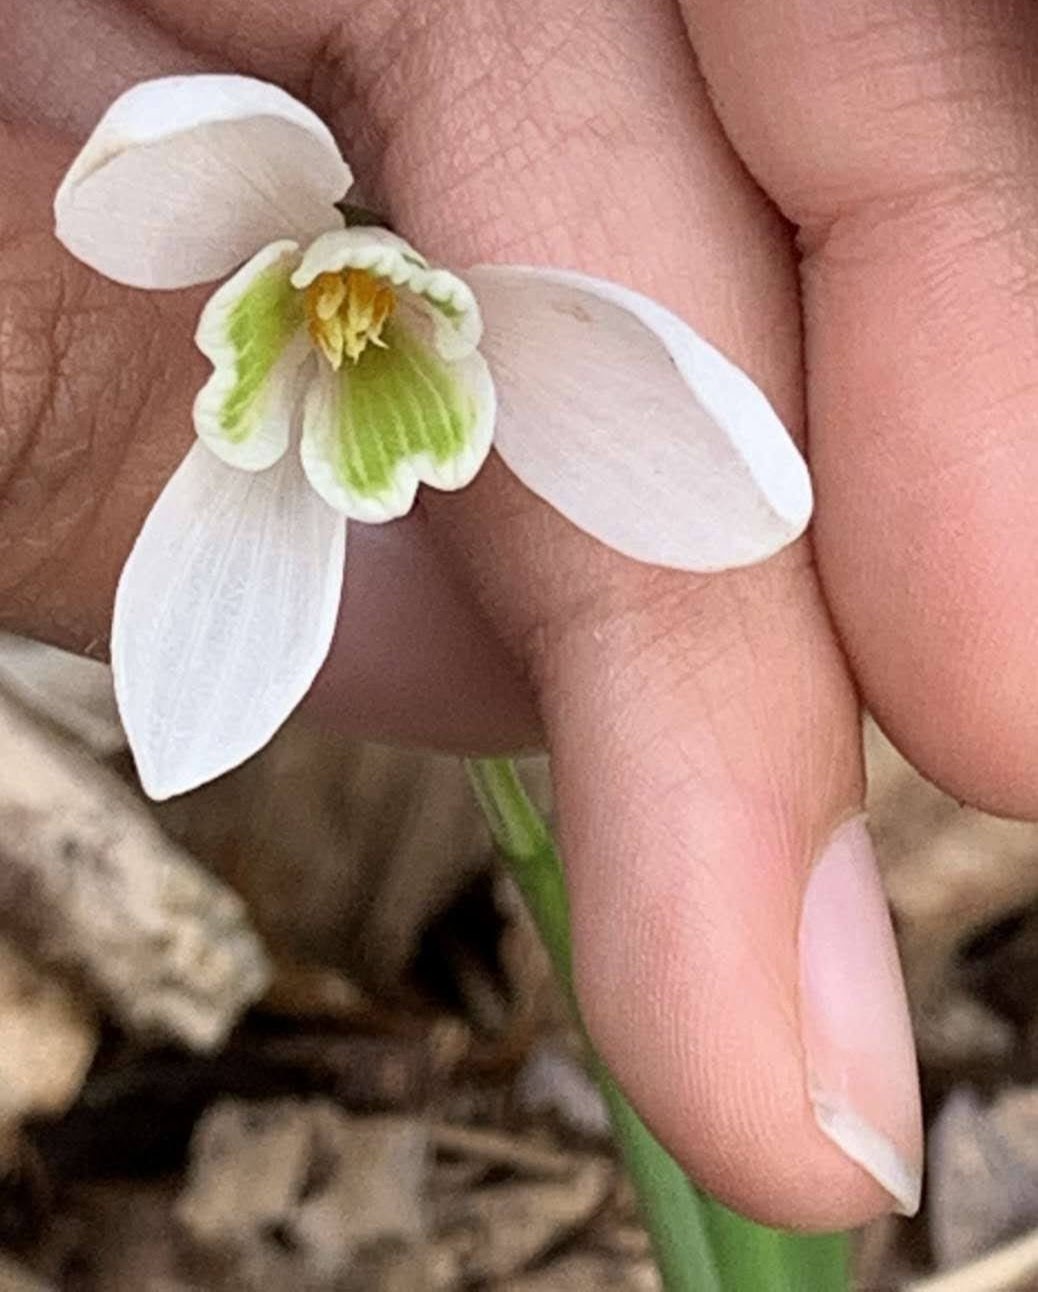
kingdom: Plantae
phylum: Tracheophyta
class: Liliopsida
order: Asparagales
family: Amaryllidaceae
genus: Galanthus
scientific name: Galanthus nivalis
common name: Snowdrop
